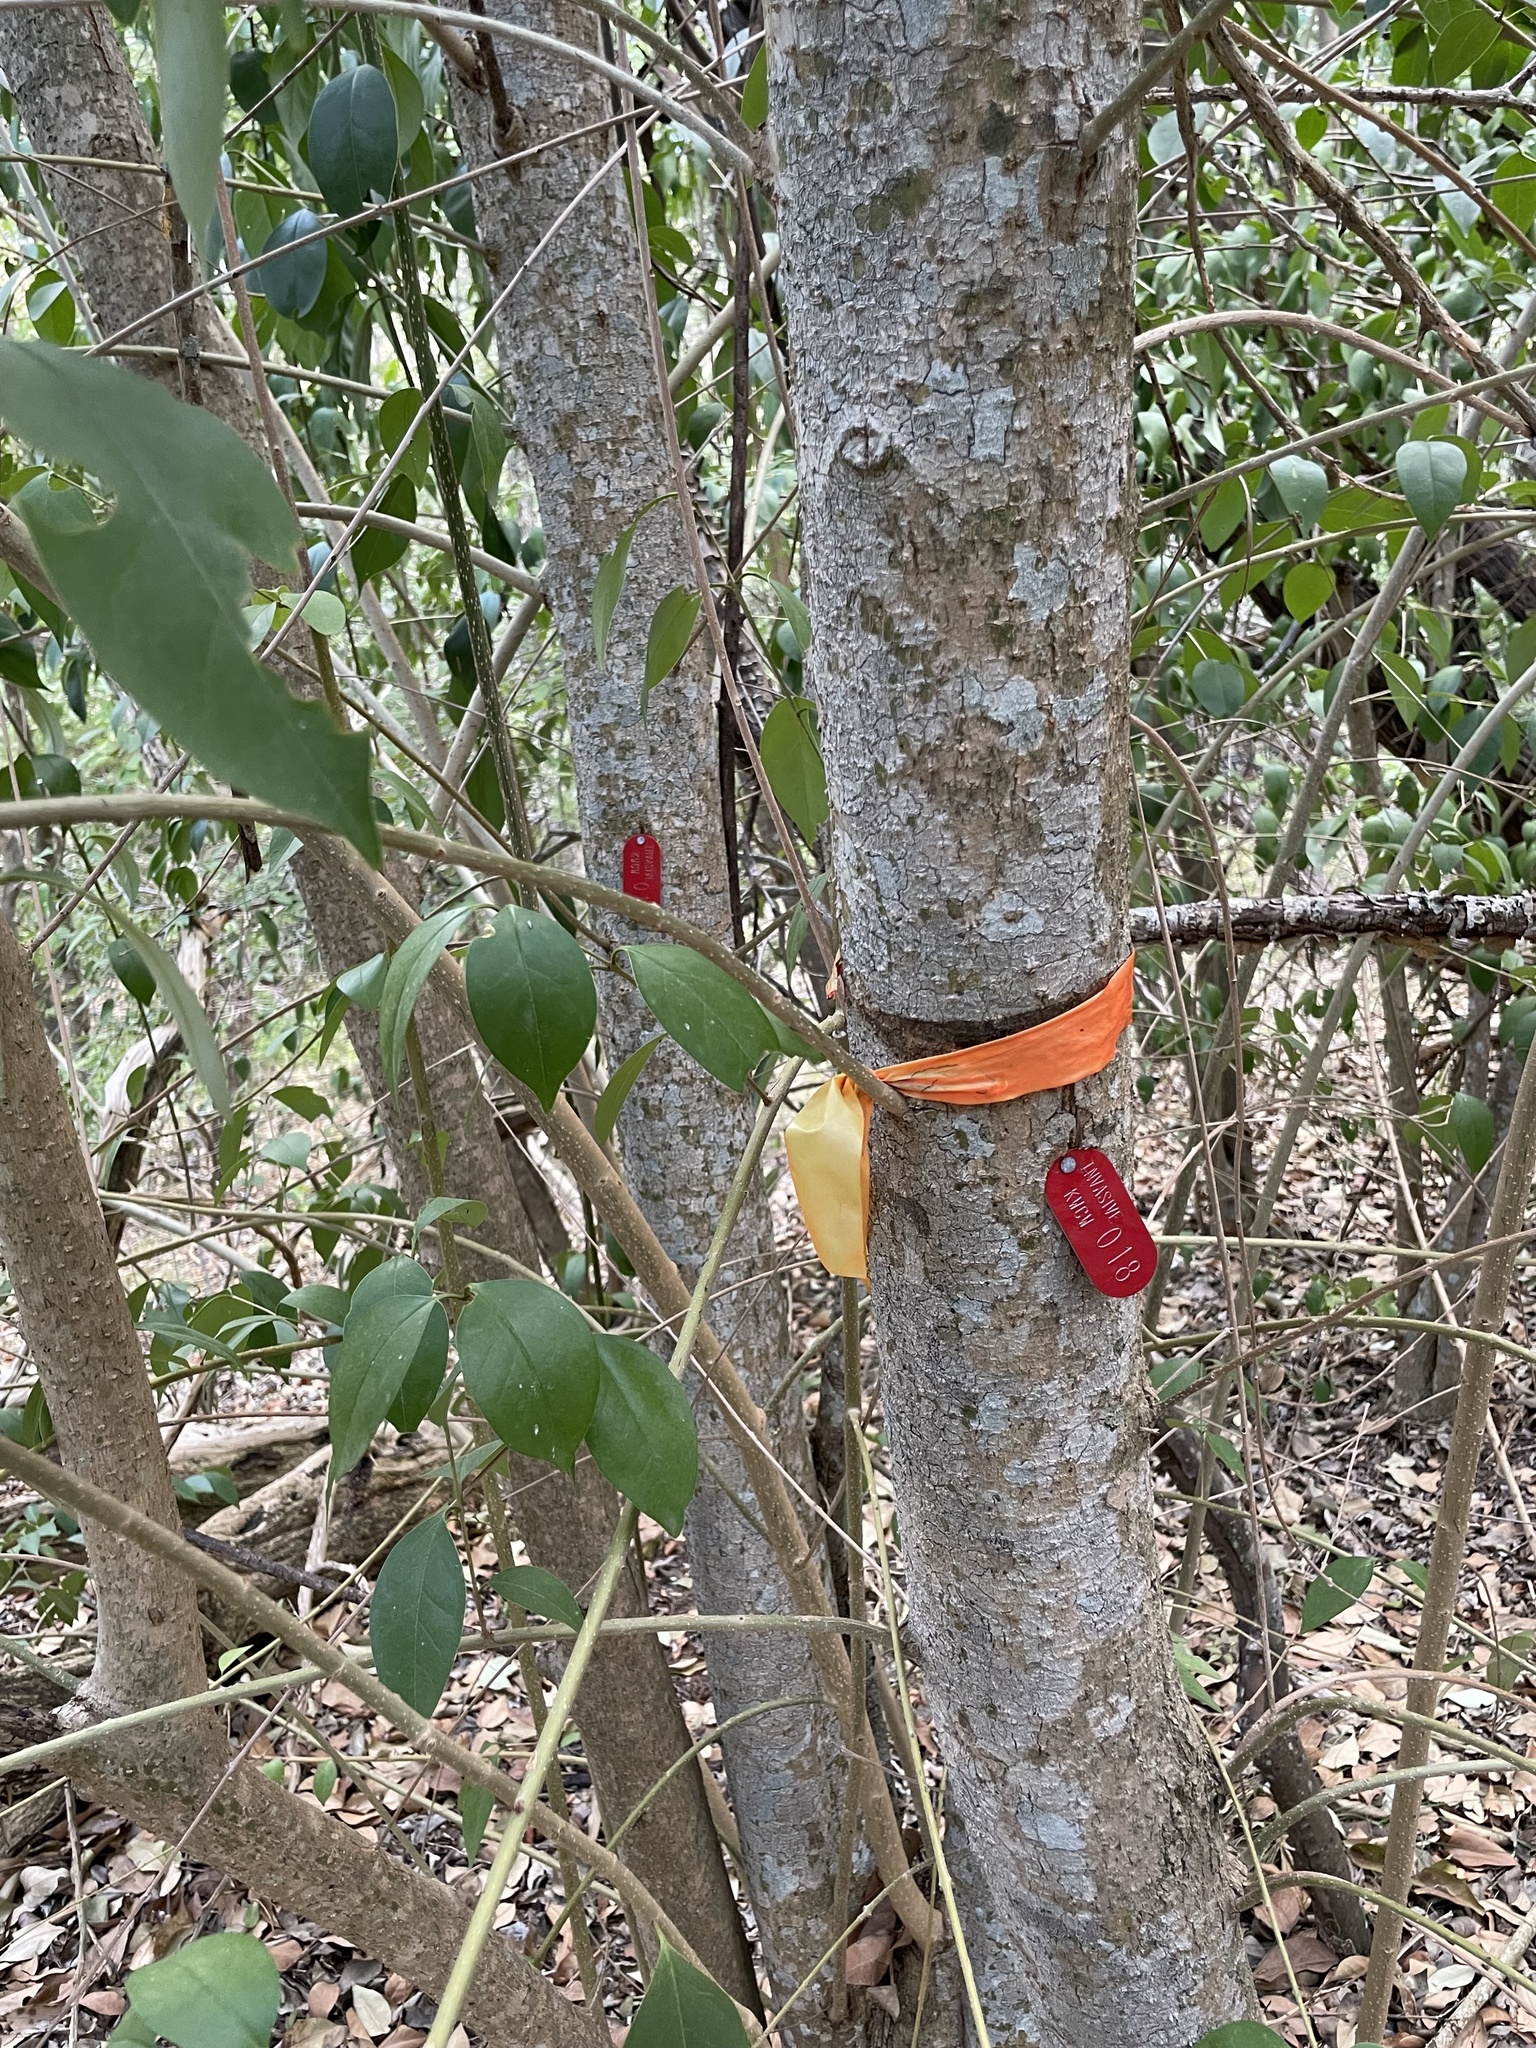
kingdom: Plantae
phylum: Tracheophyta
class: Magnoliopsida
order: Lamiales
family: Oleaceae
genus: Ligustrum
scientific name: Ligustrum lucidum
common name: Glossy privet
